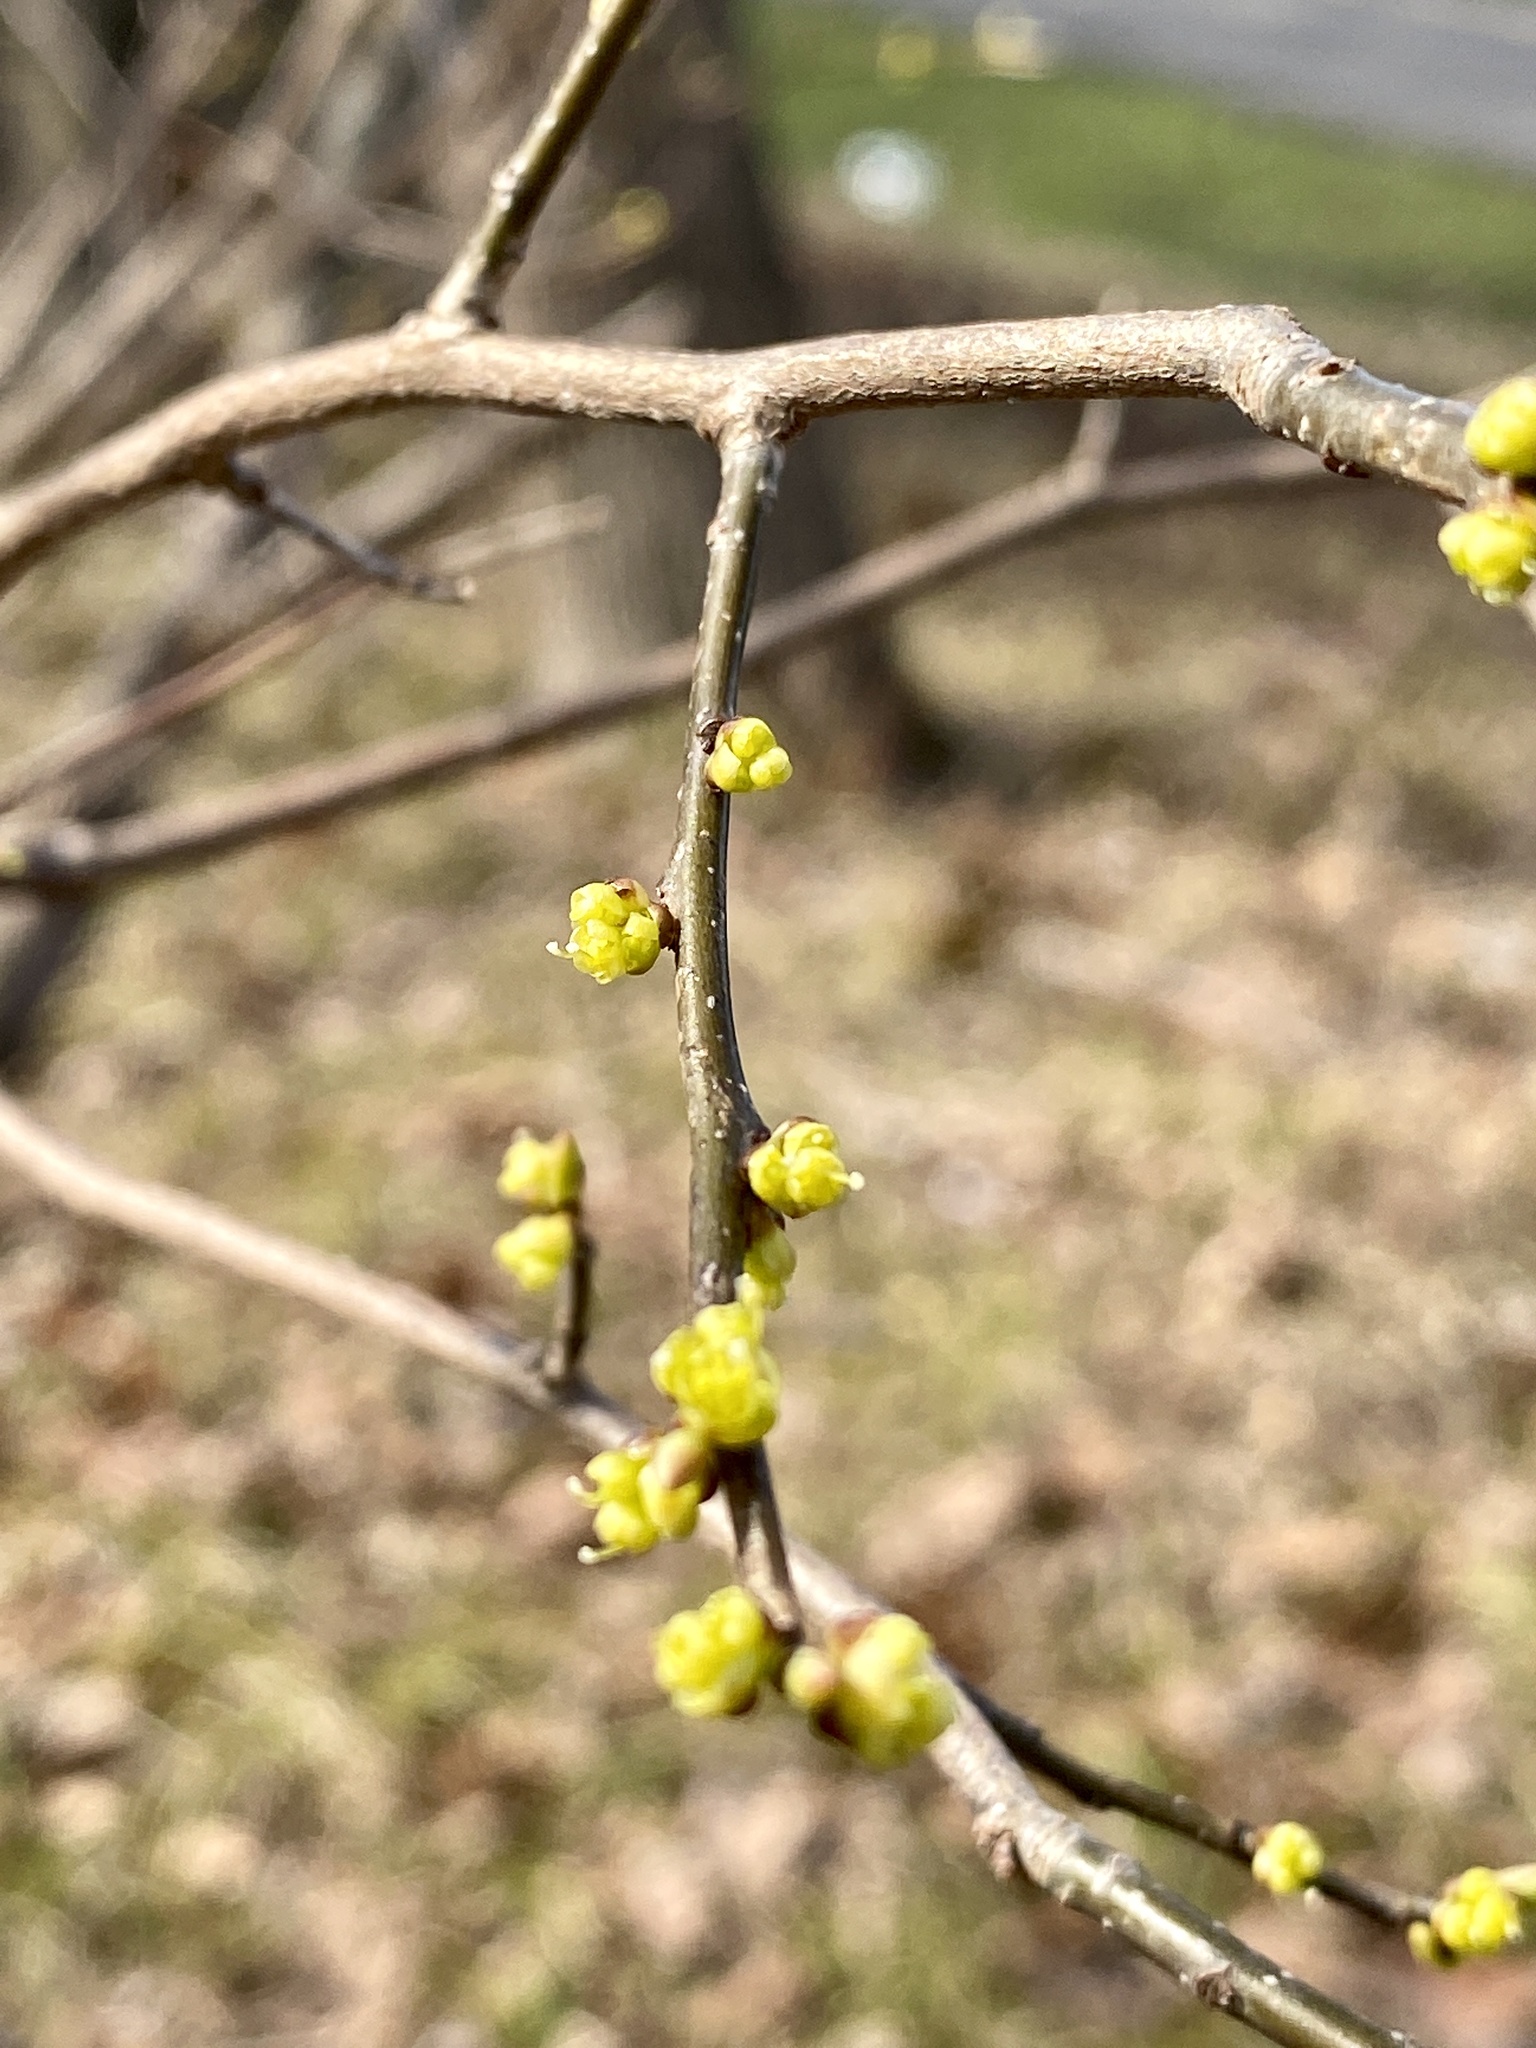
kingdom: Plantae
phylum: Tracheophyta
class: Magnoliopsida
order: Laurales
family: Lauraceae
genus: Lindera
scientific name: Lindera benzoin
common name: Spicebush
